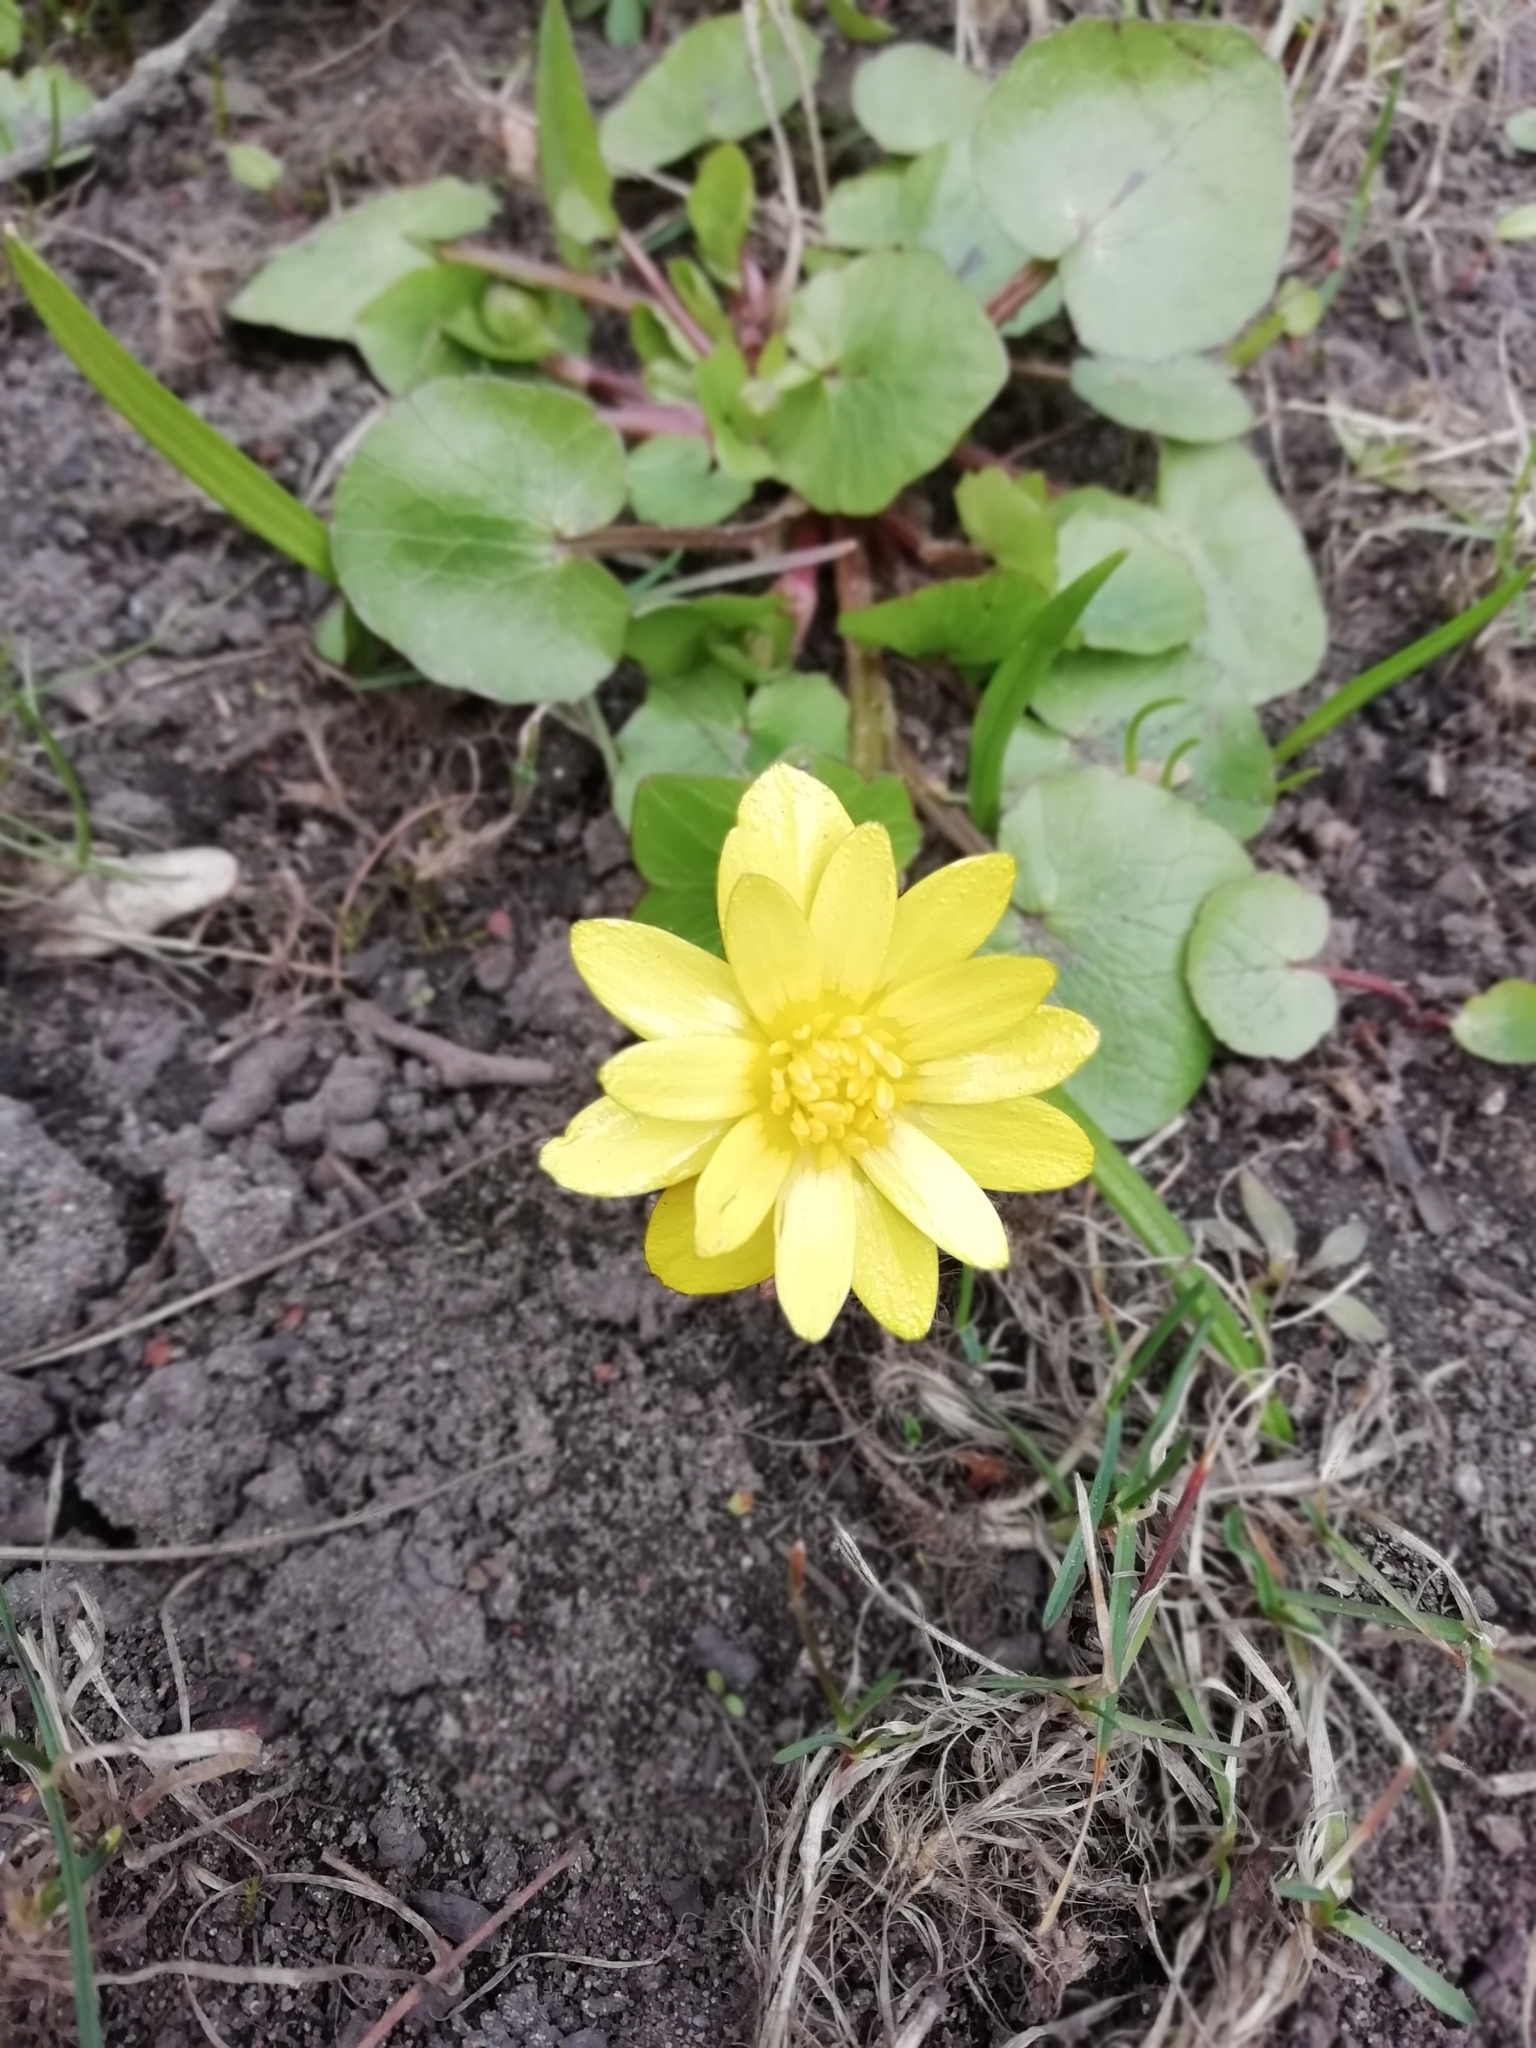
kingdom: Plantae
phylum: Tracheophyta
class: Magnoliopsida
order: Ranunculales
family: Ranunculaceae
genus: Ficaria
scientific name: Ficaria verna
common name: Lesser celandine
